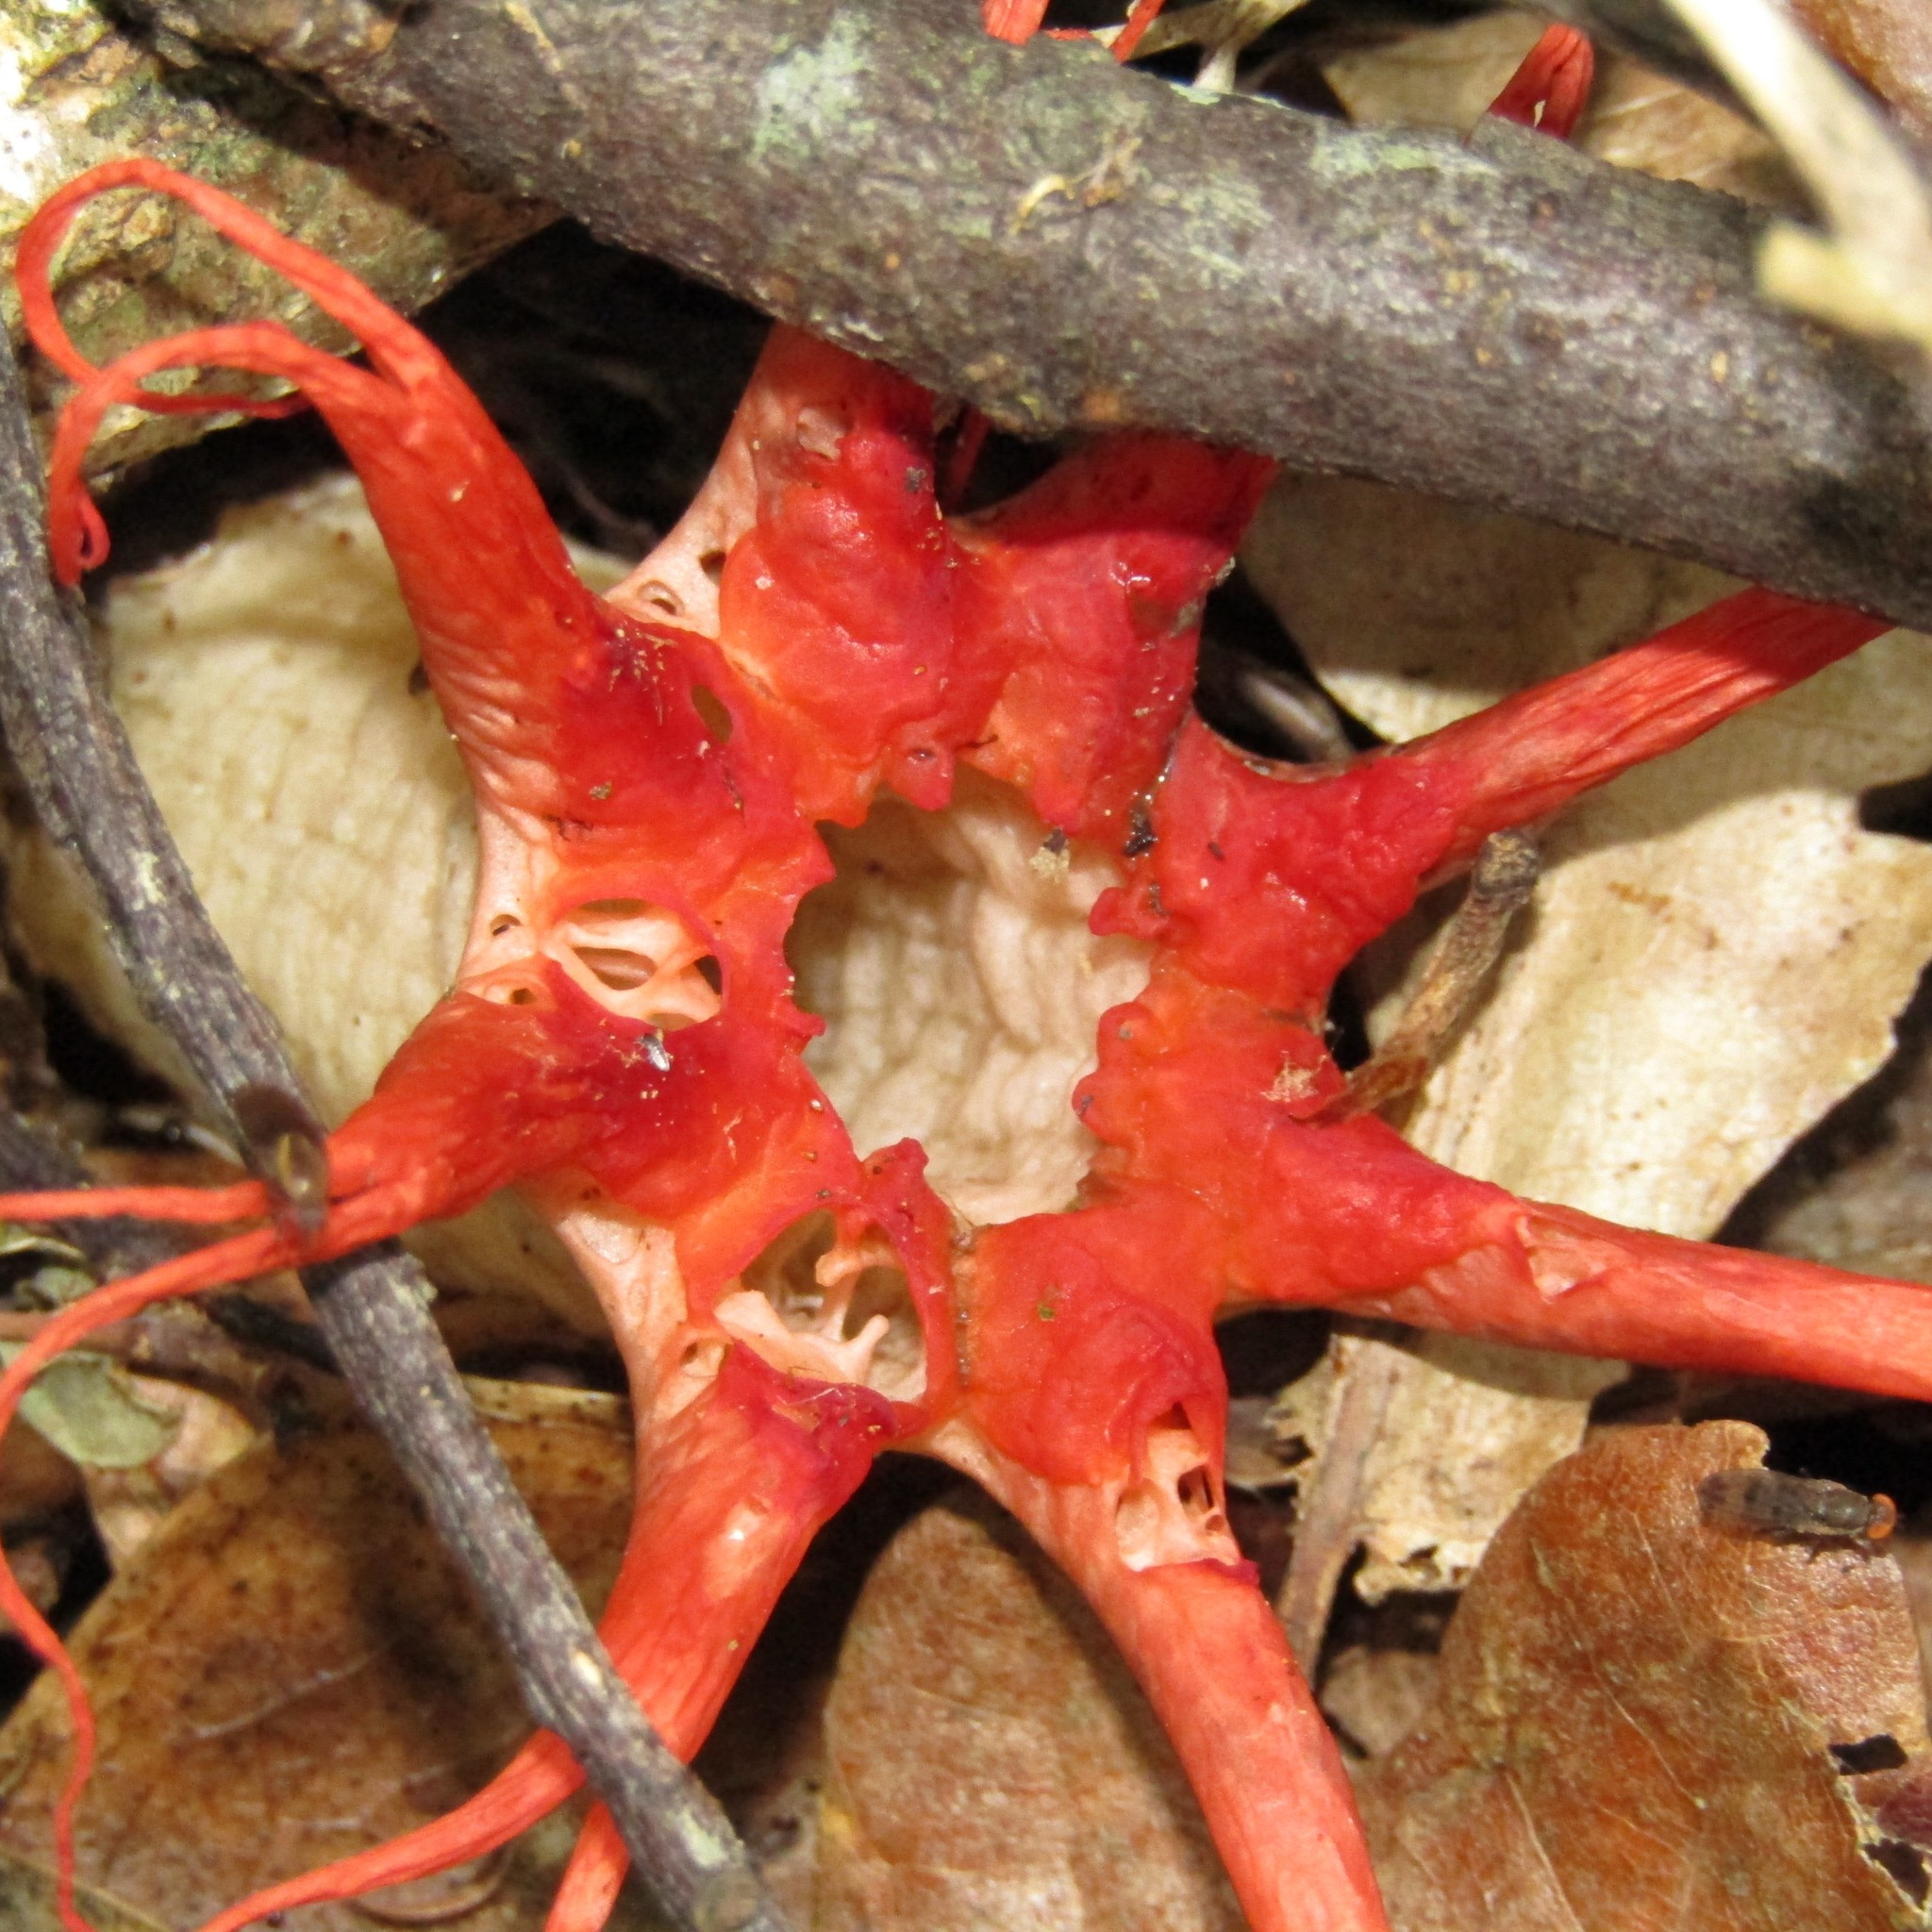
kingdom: Fungi
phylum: Basidiomycota
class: Agaricomycetes
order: Phallales
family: Phallaceae
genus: Aseroe
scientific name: Aseroe rubra
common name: Starfish fungus
